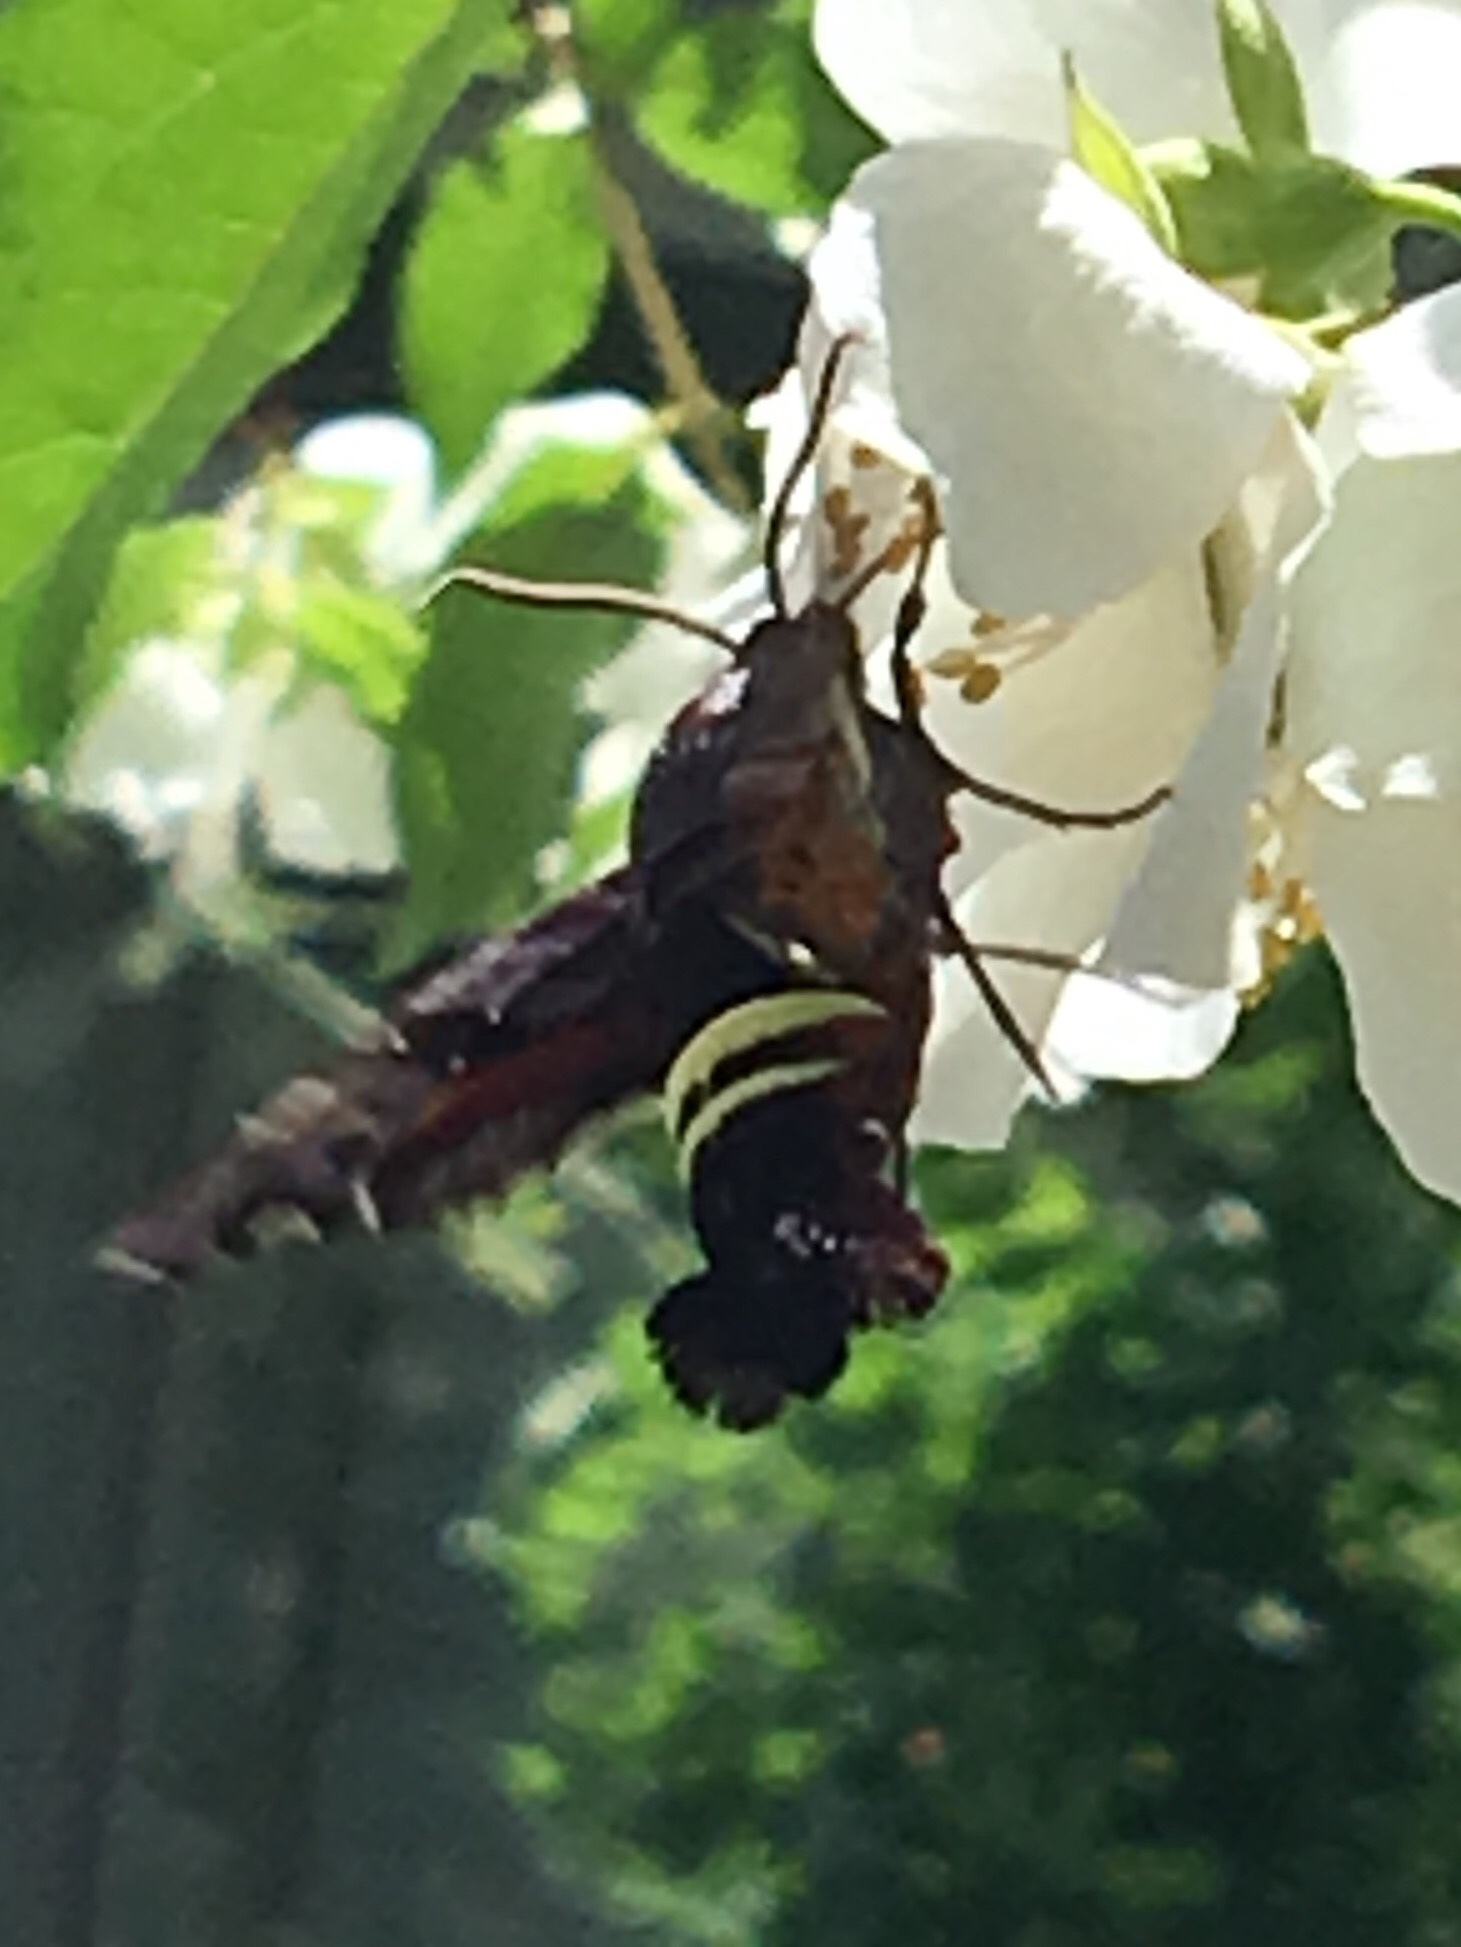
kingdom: Animalia
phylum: Arthropoda
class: Insecta
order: Lepidoptera
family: Sphingidae
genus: Amphion
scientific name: Amphion floridensis
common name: Nessus sphinx
